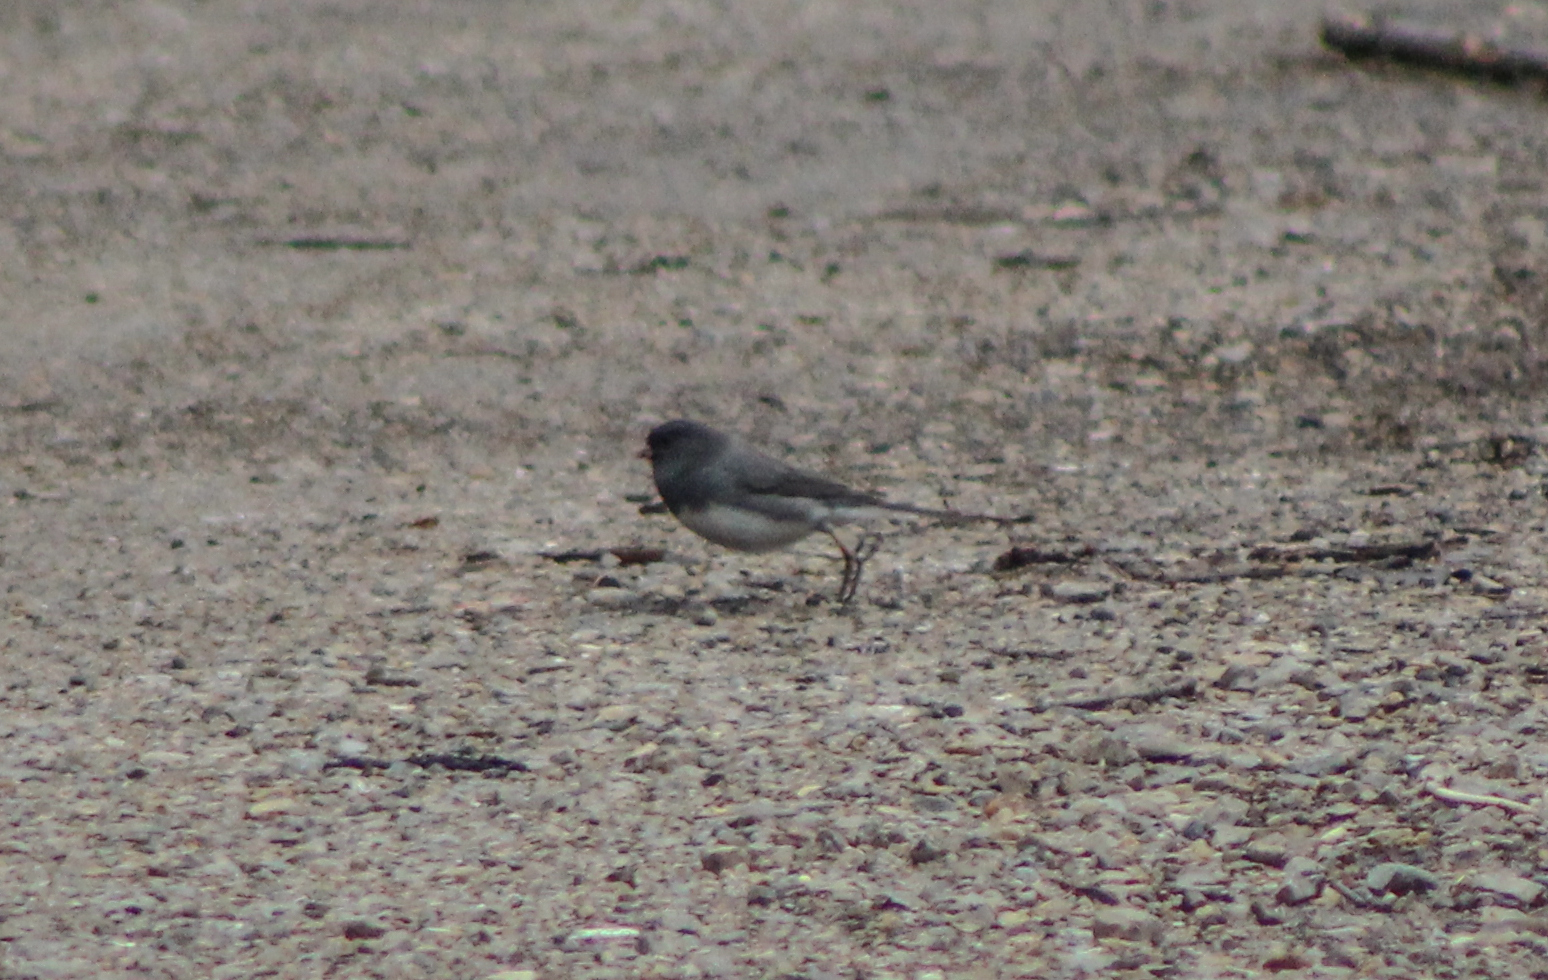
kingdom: Animalia
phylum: Chordata
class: Aves
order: Passeriformes
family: Passerellidae
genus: Junco
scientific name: Junco hyemalis
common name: Dark-eyed junco
